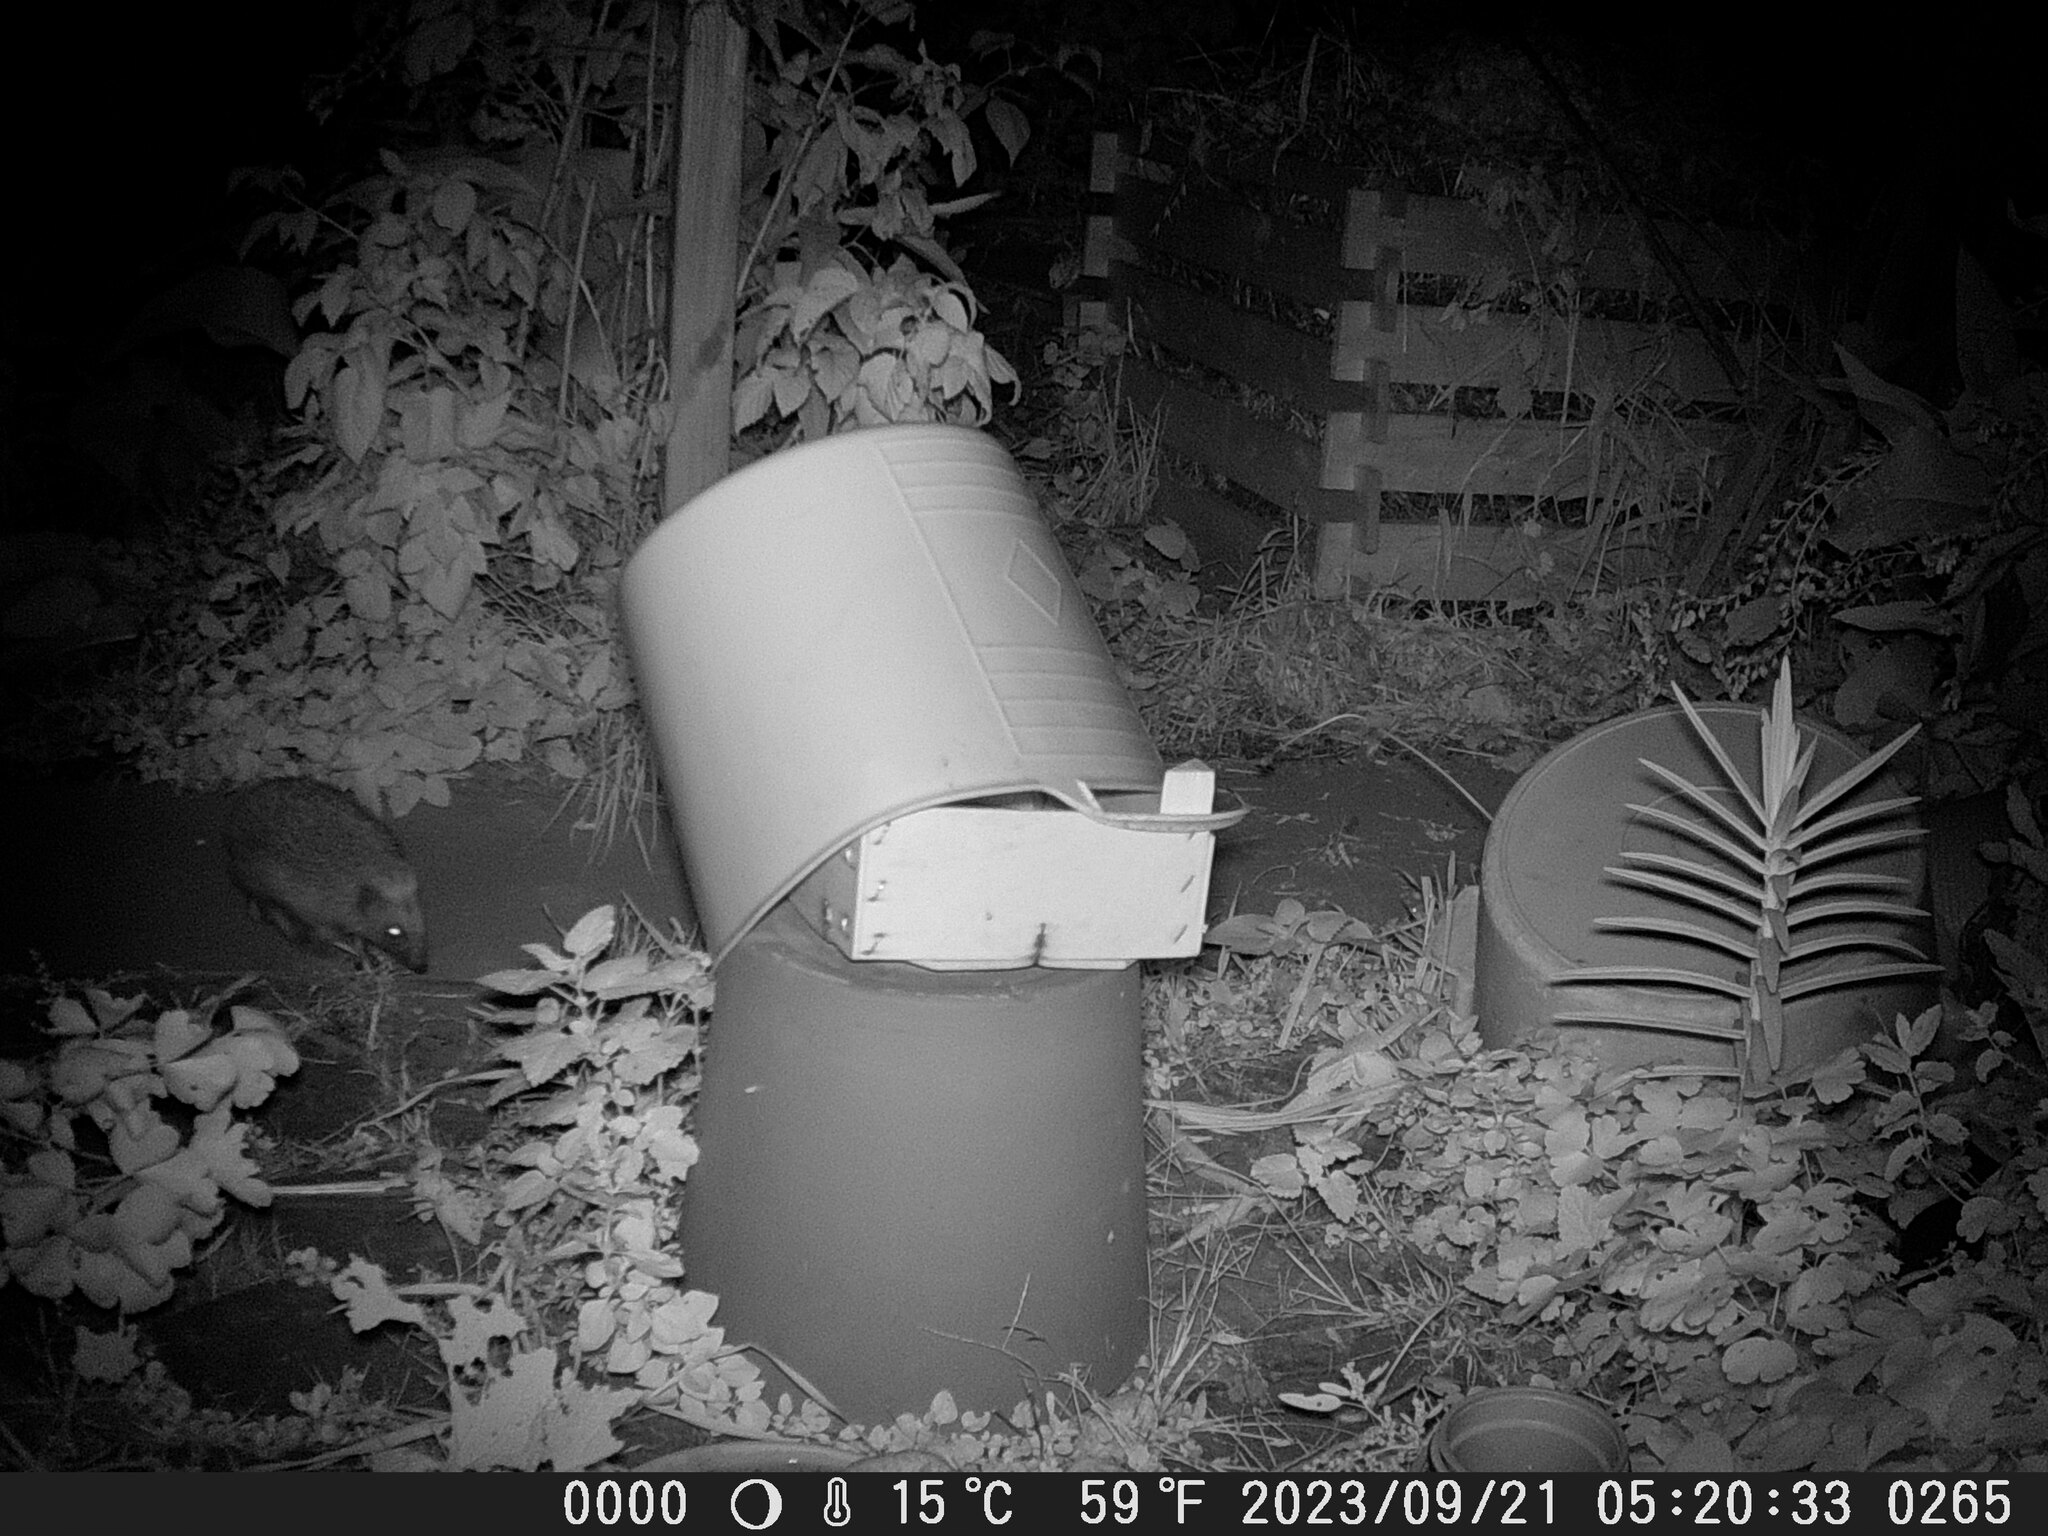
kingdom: Animalia
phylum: Chordata
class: Mammalia
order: Erinaceomorpha
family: Erinaceidae
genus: Erinaceus
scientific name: Erinaceus europaeus
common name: West european hedgehog
